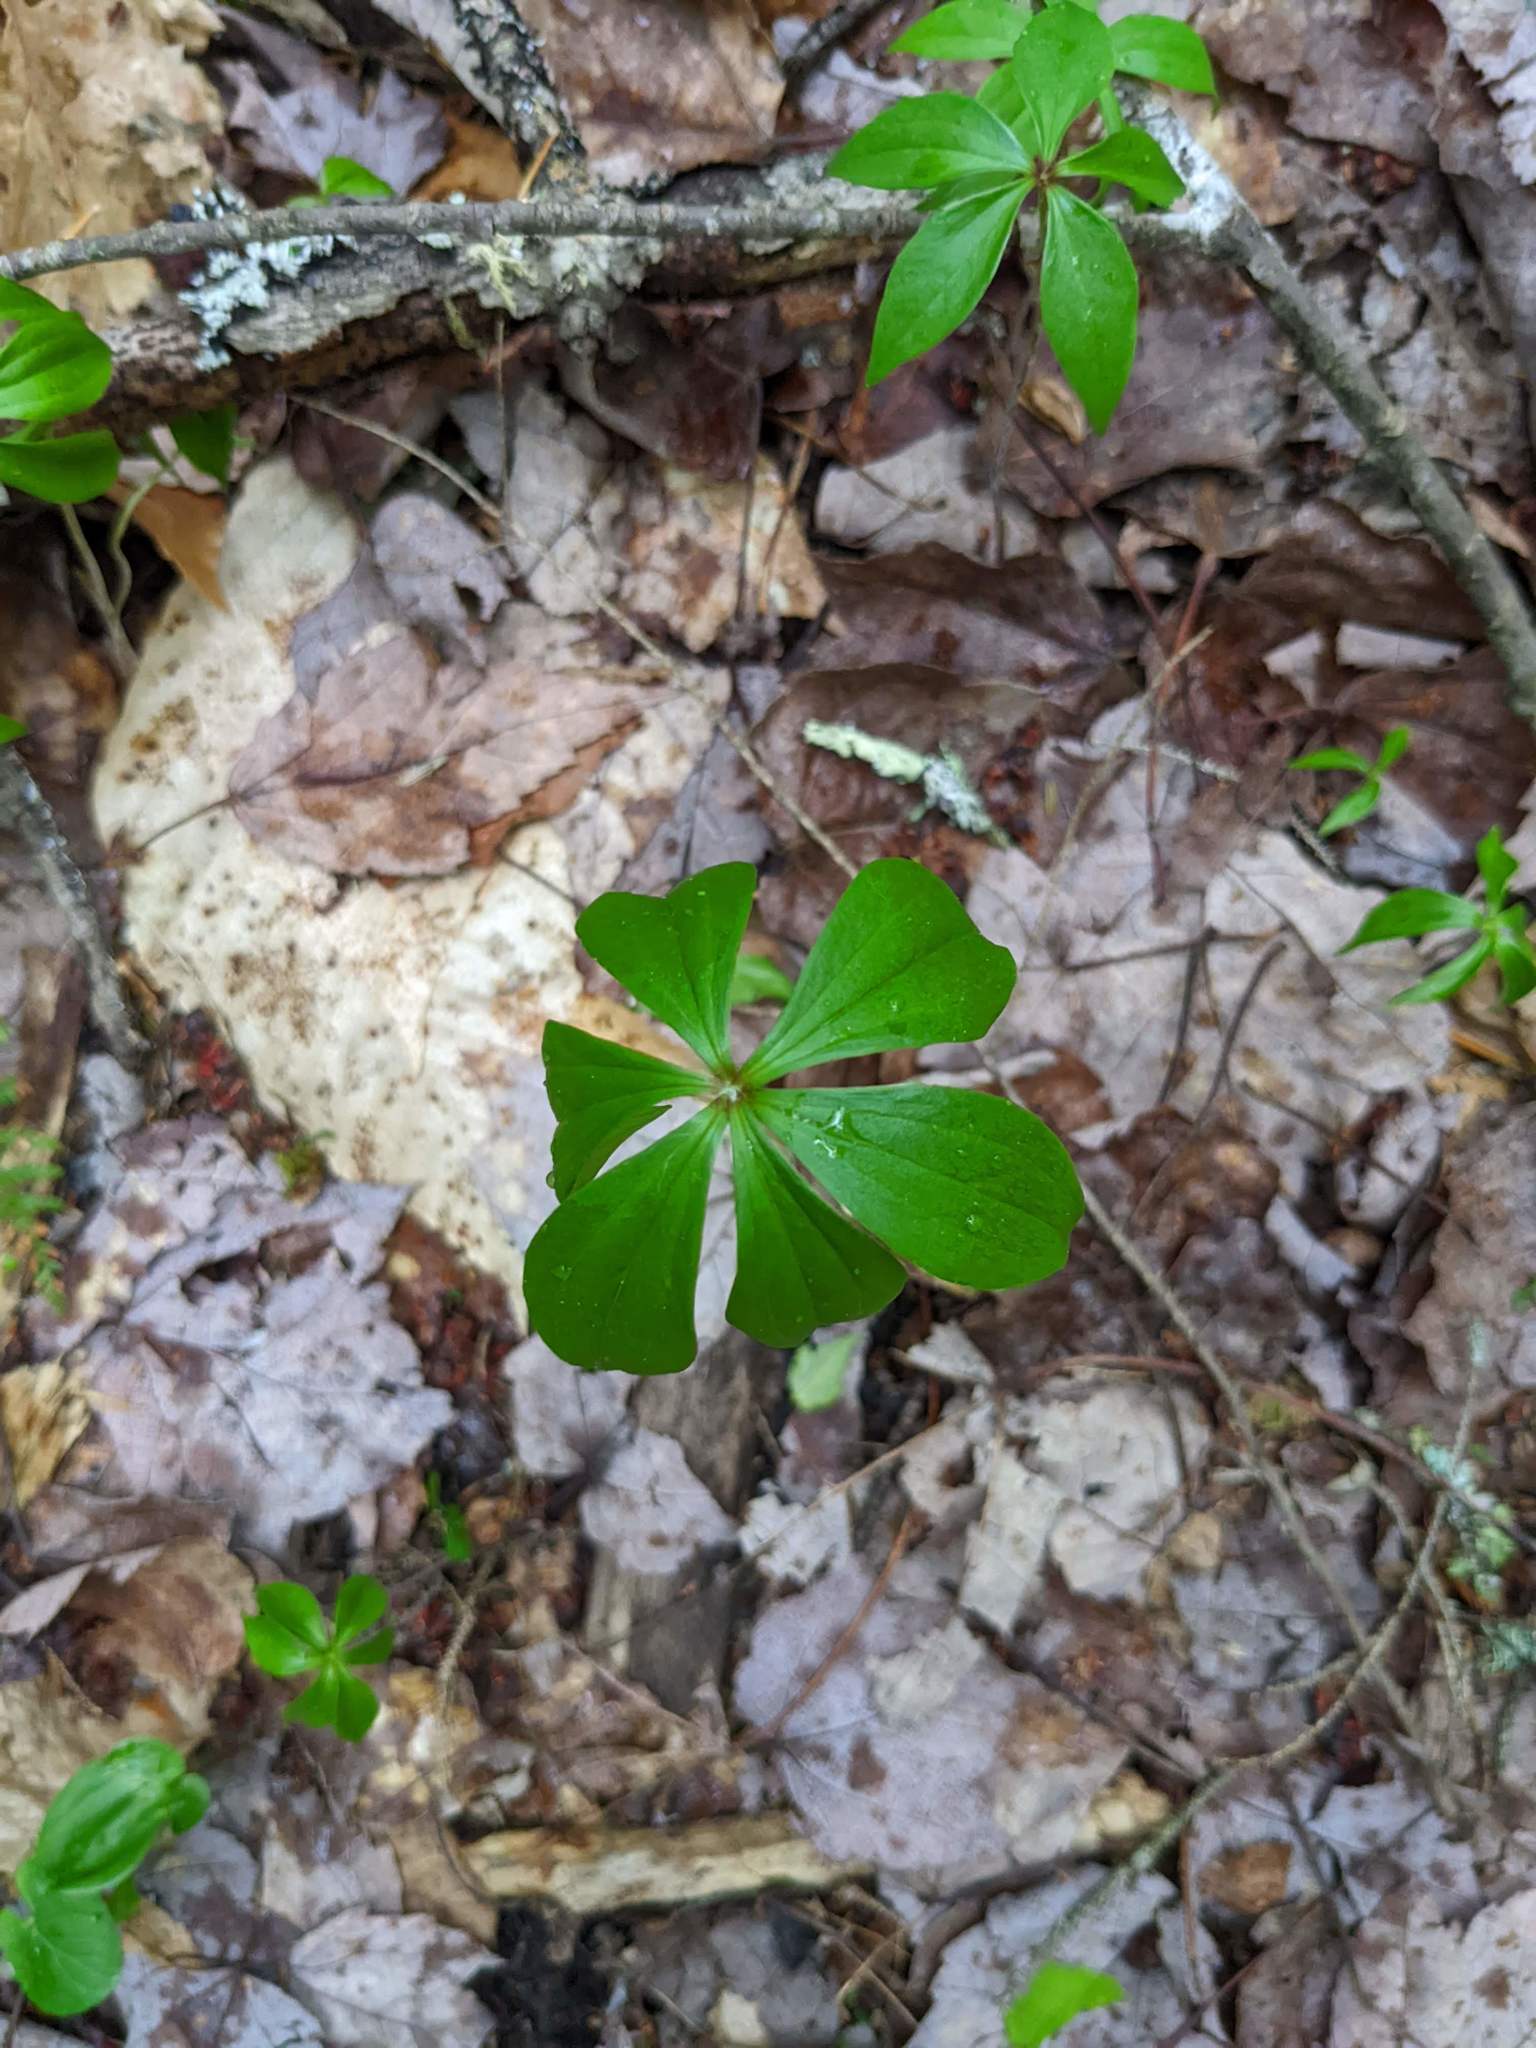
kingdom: Plantae
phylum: Tracheophyta
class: Liliopsida
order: Liliales
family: Liliaceae
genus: Medeola
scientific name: Medeola virginiana
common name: Indian cucumber-root
